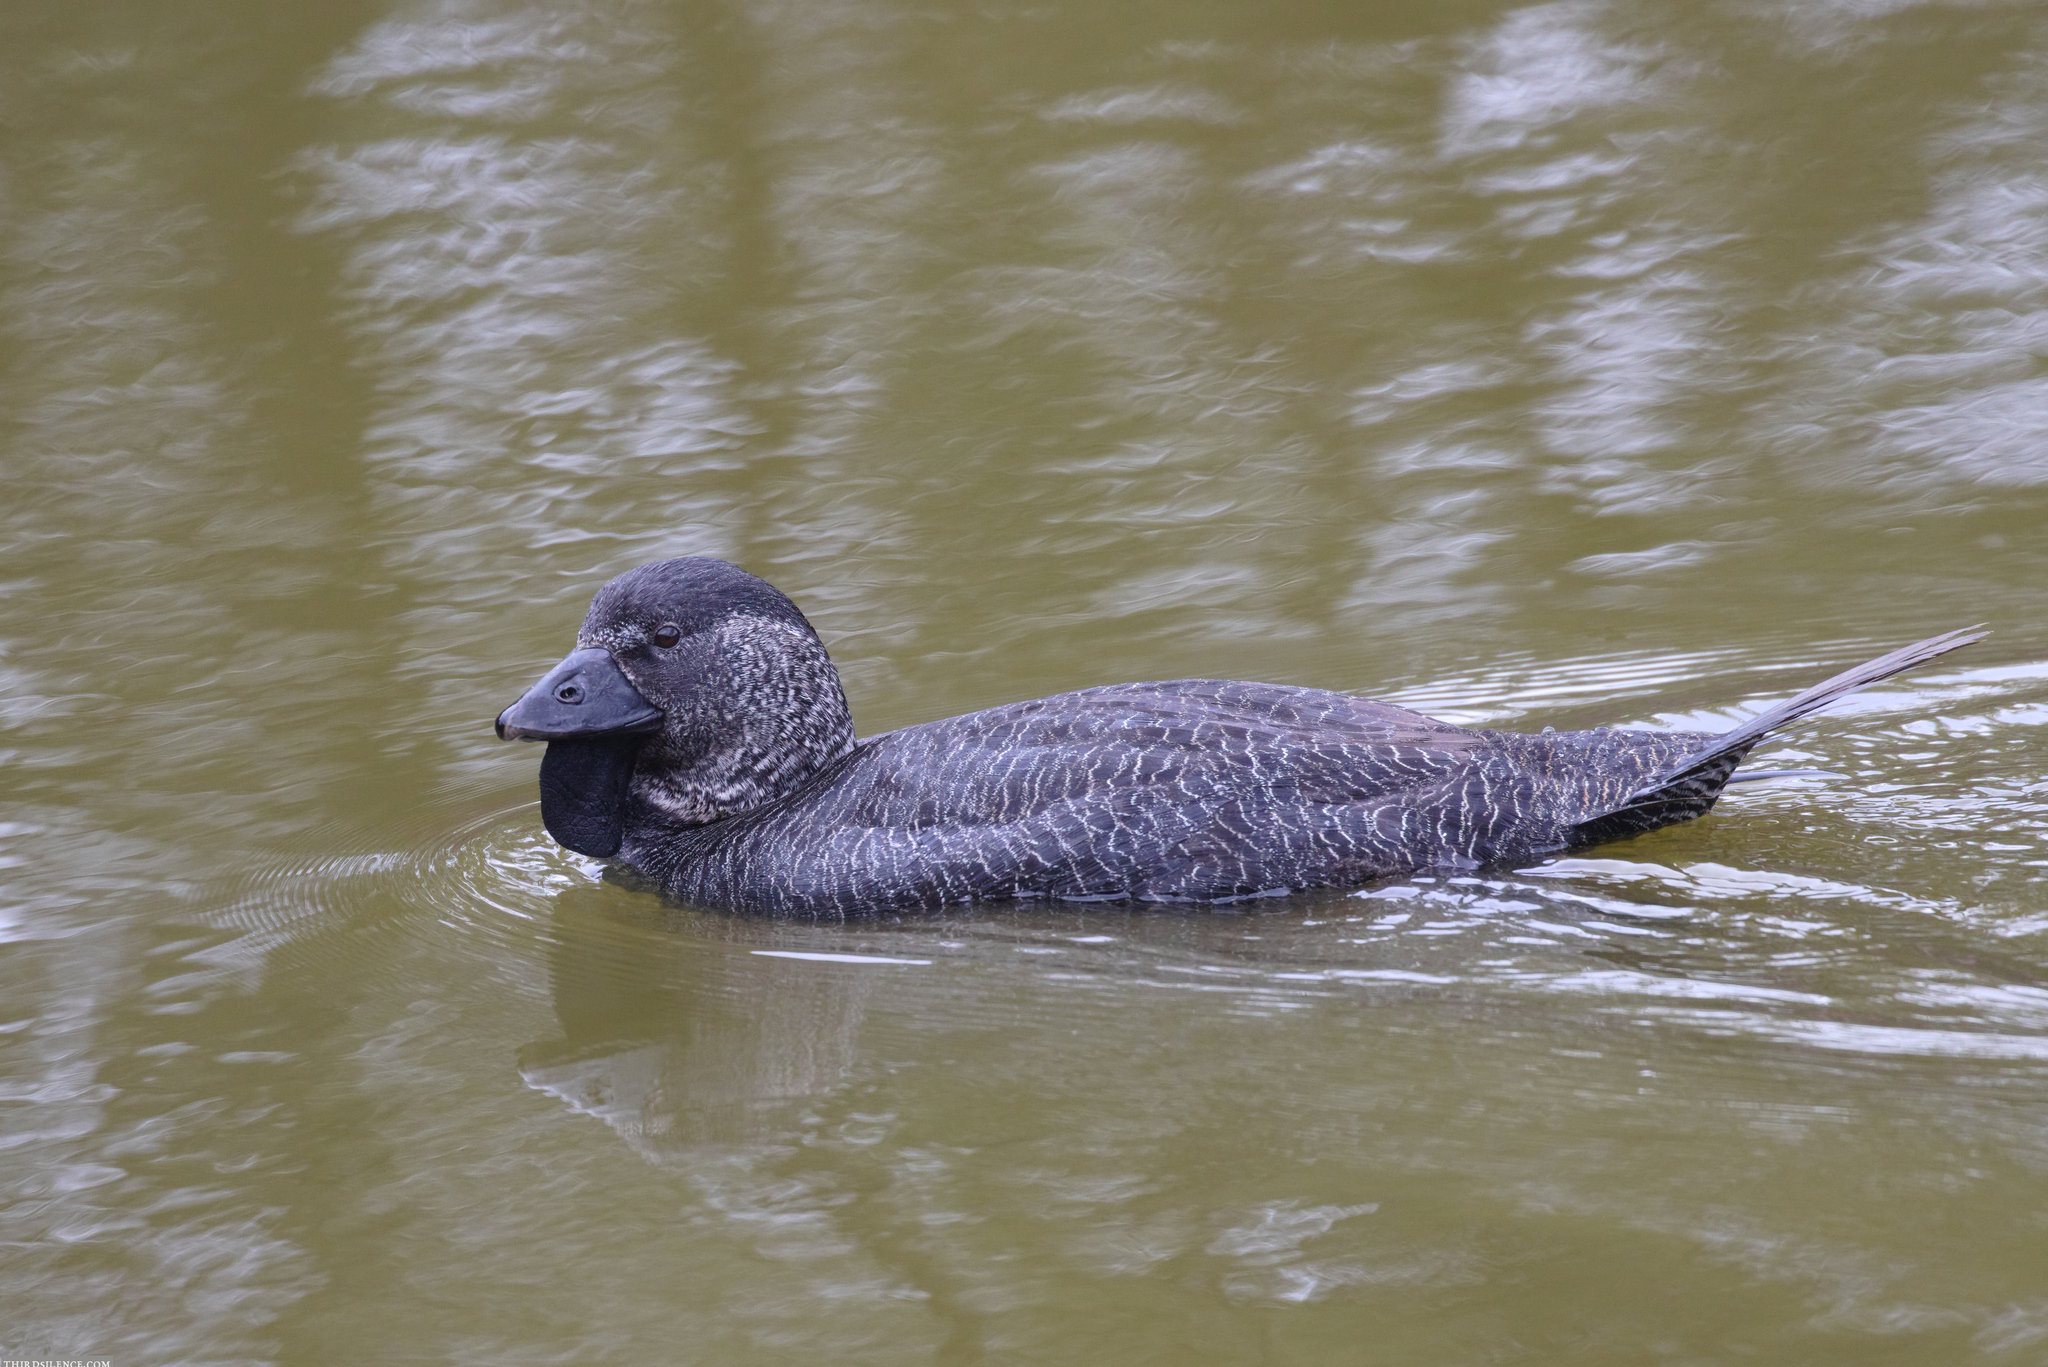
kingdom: Animalia
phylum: Chordata
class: Aves
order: Anseriformes
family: Anatidae
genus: Biziura
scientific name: Biziura lobata
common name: Musk duck
